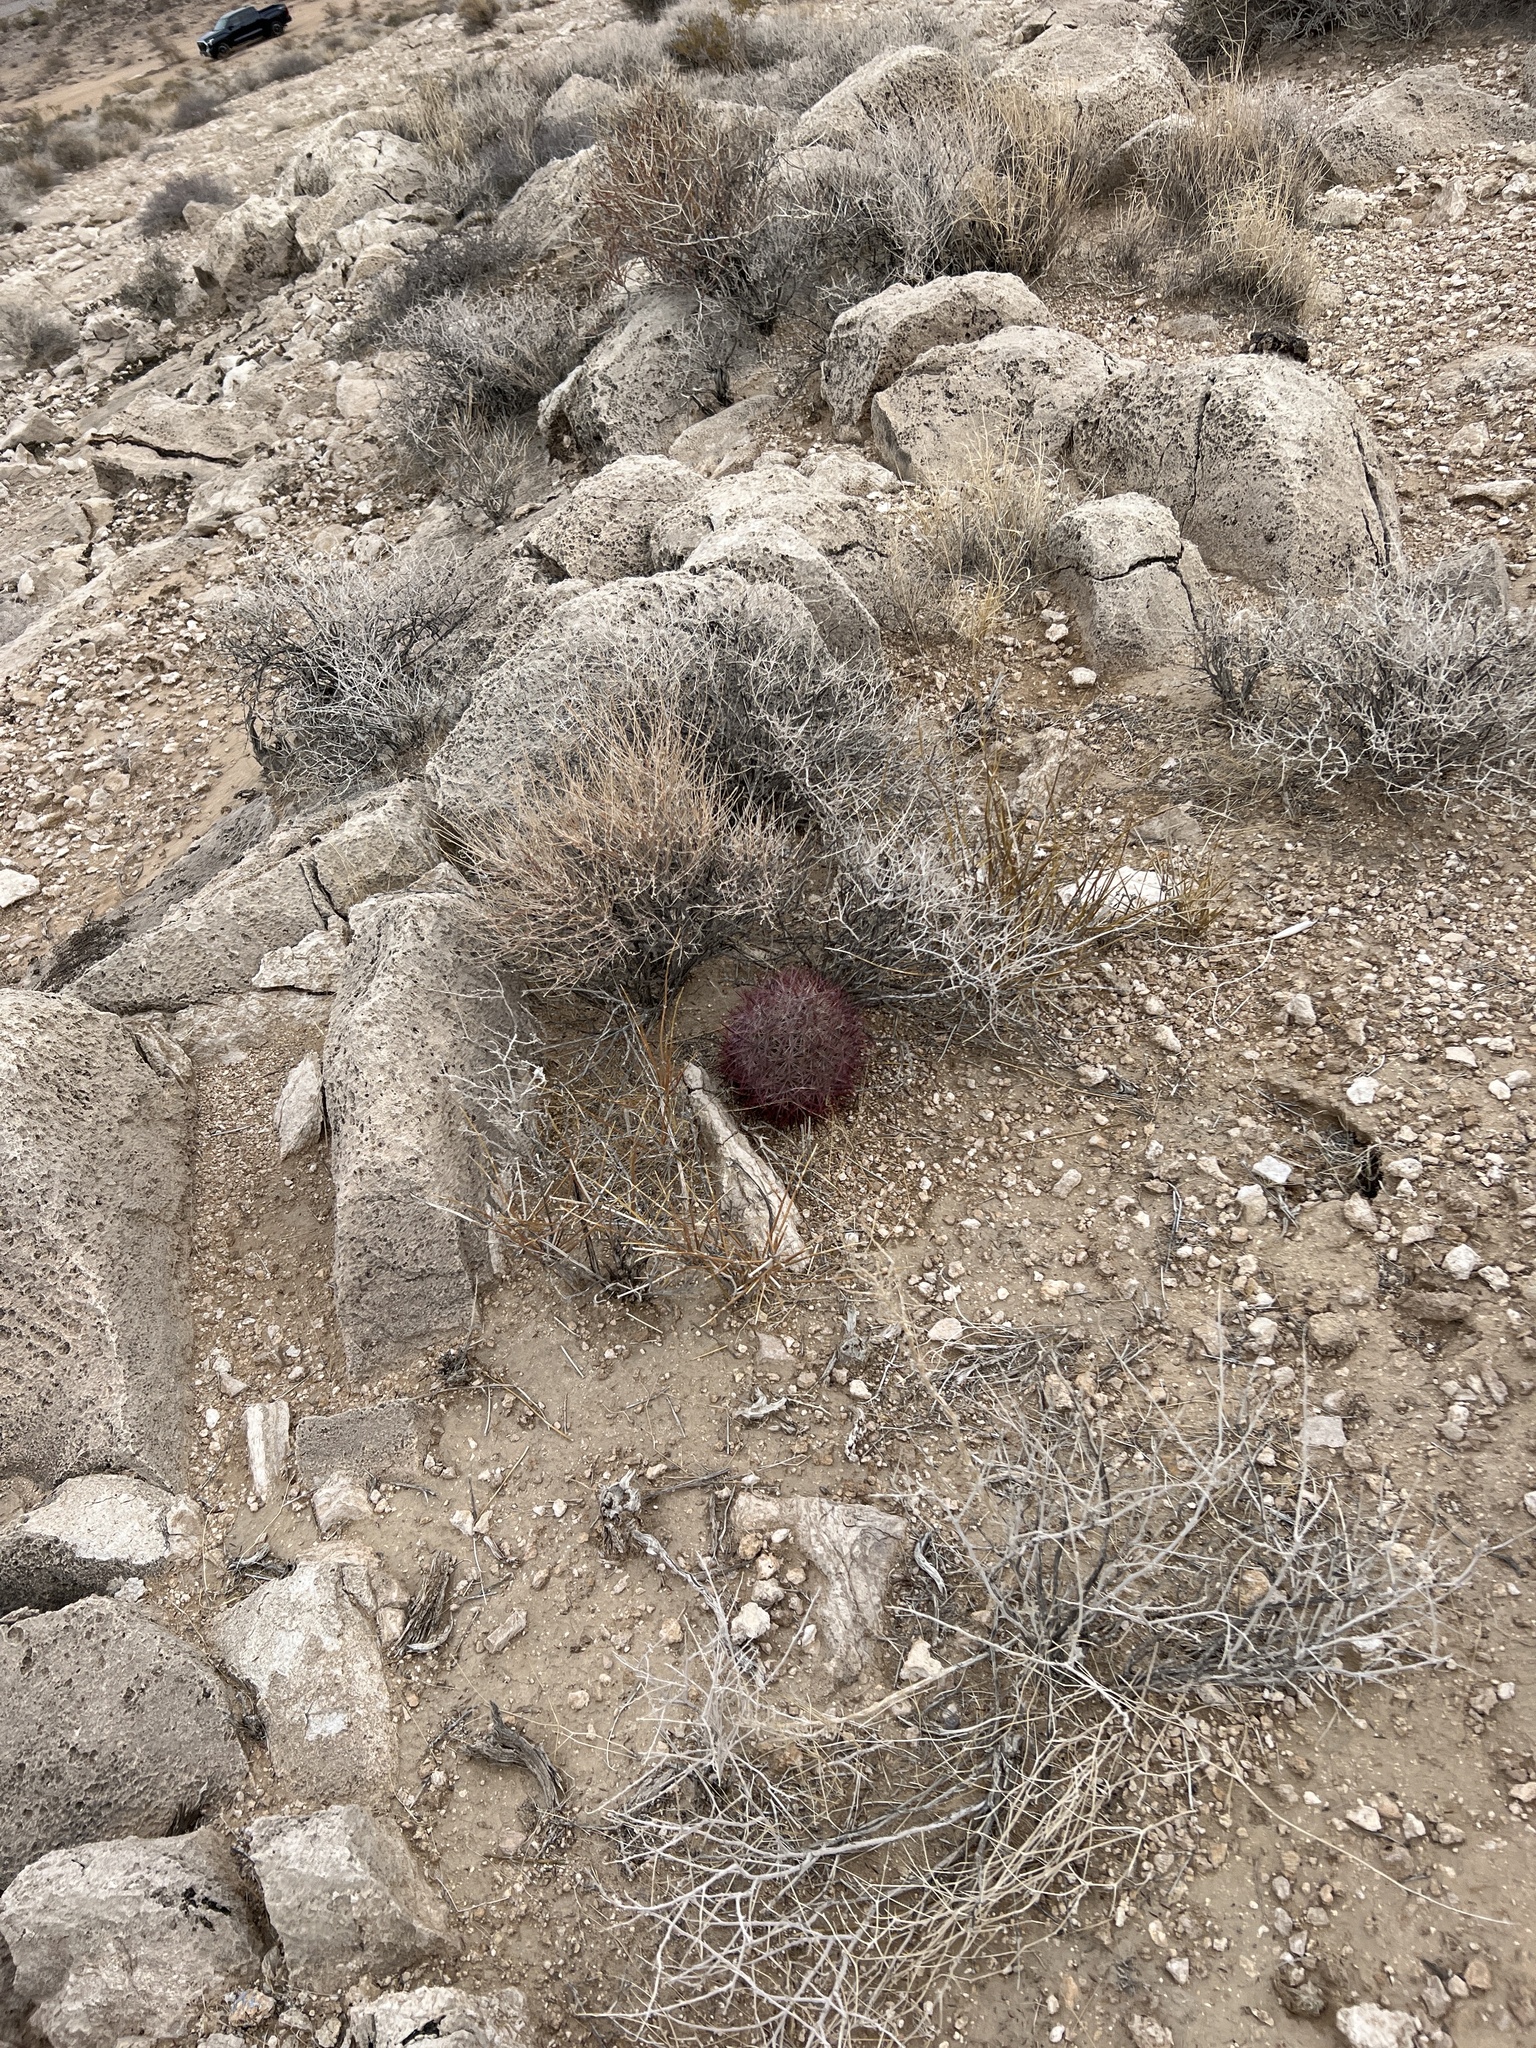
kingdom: Plantae
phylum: Tracheophyta
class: Magnoliopsida
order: Caryophyllales
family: Cactaceae
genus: Sclerocactus
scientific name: Sclerocactus johnsonii
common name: Eight-spine fishhook cactus
